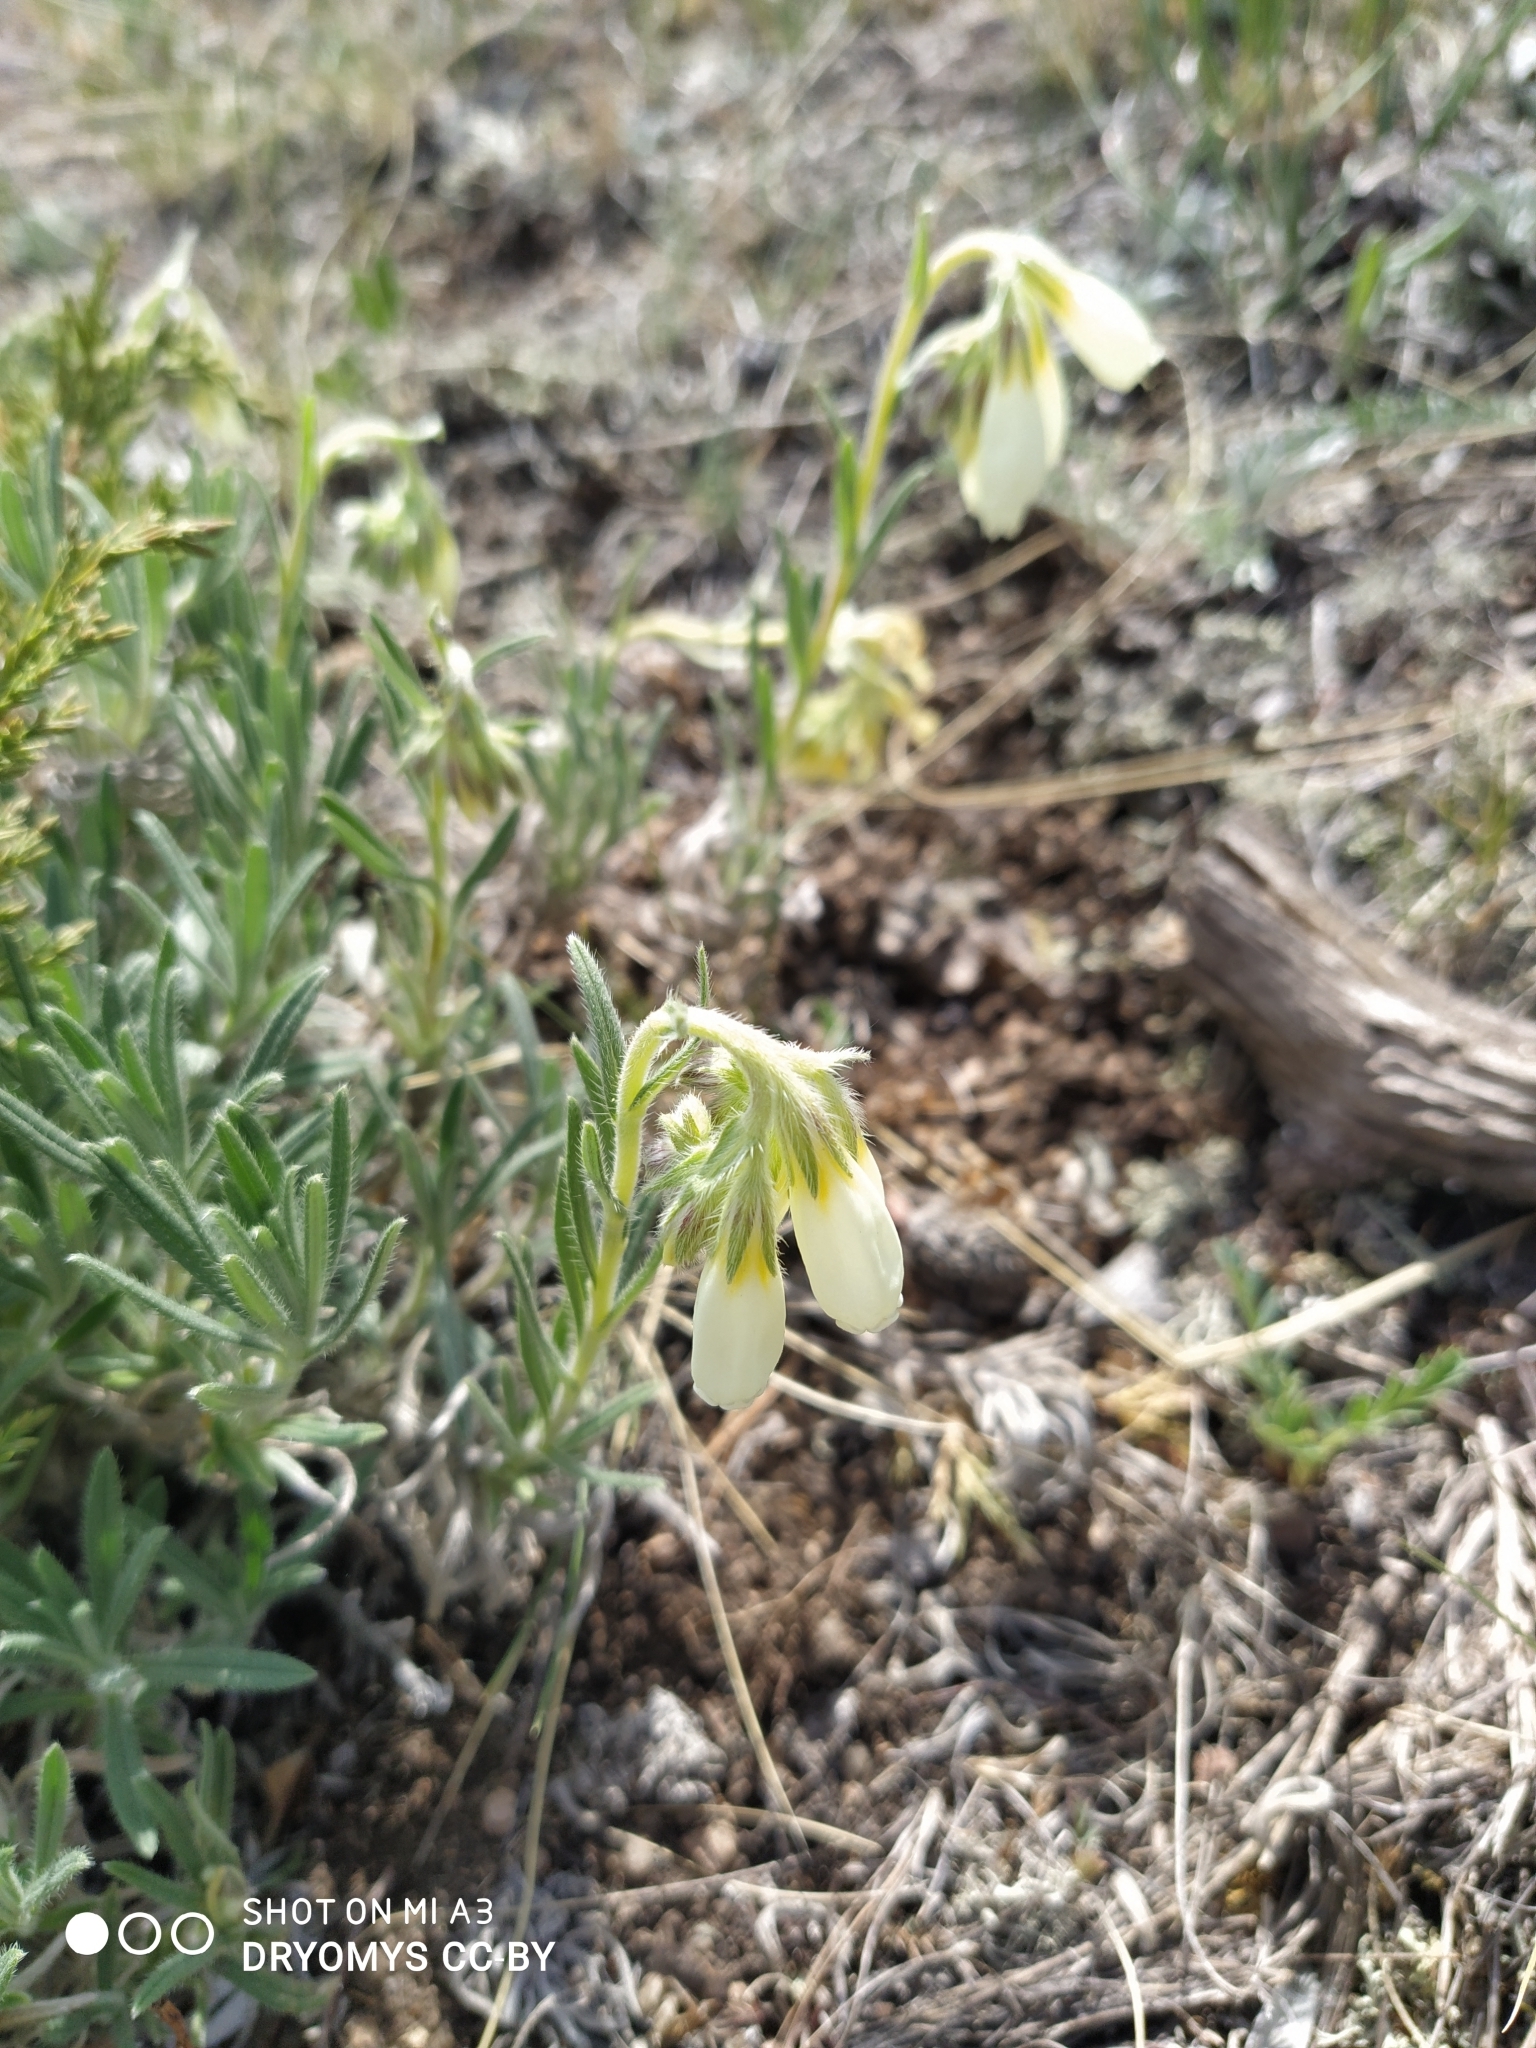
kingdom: Plantae
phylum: Tracheophyta
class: Magnoliopsida
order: Boraginales
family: Boraginaceae
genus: Onosma
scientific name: Onosma simplicissima
